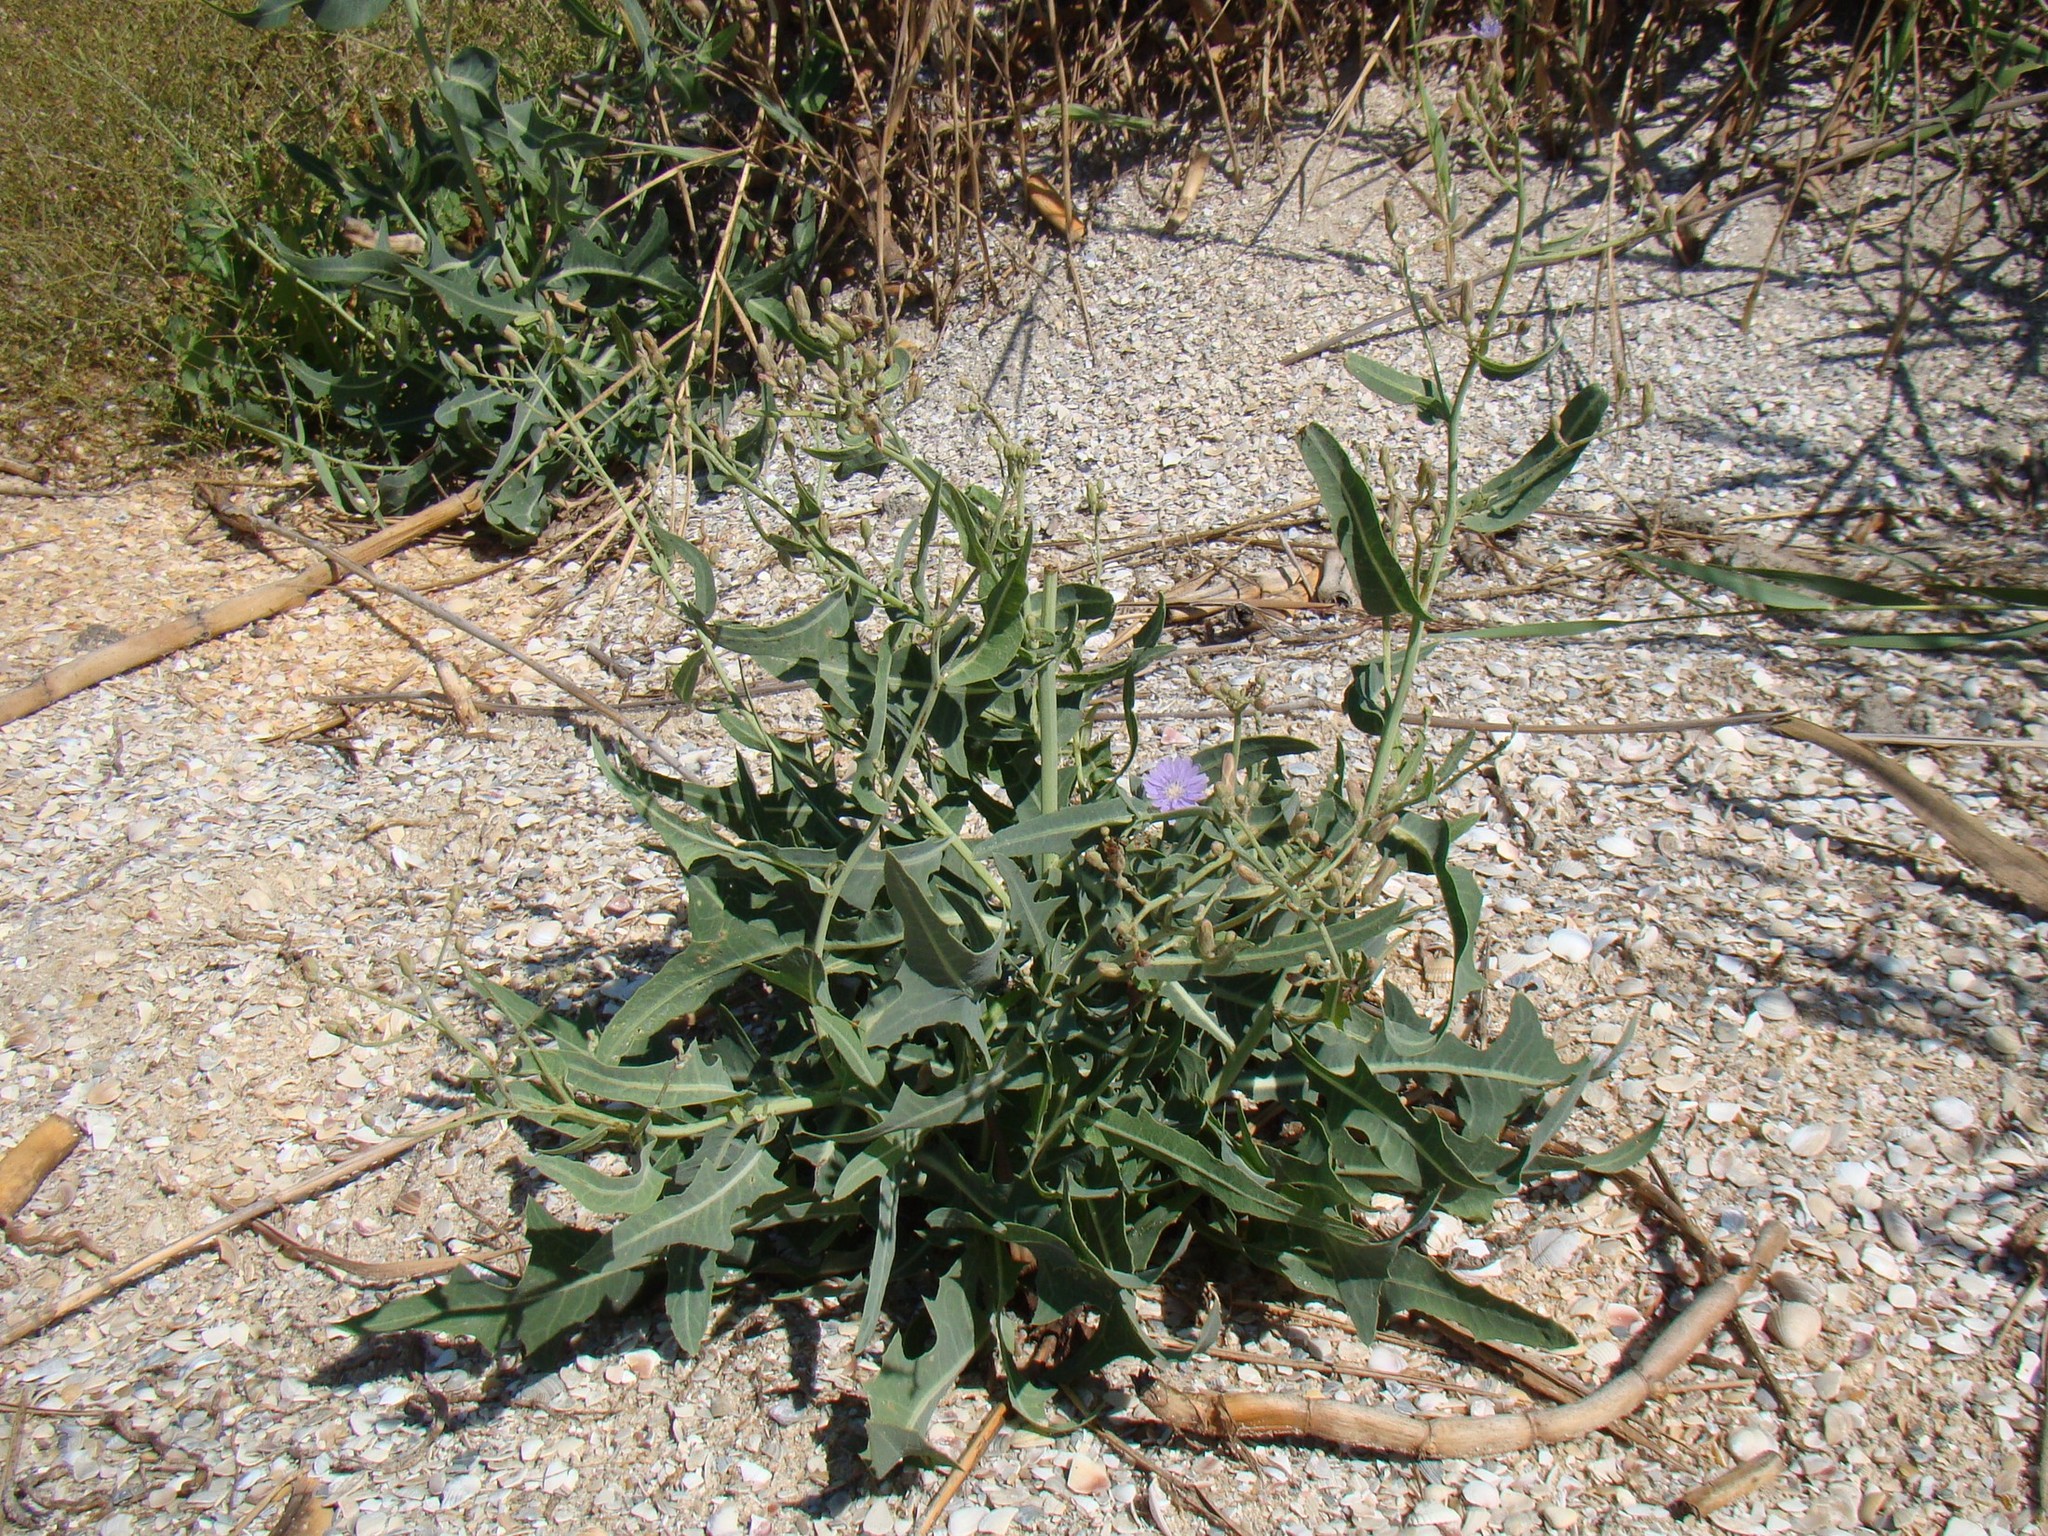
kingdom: Plantae
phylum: Tracheophyta
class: Magnoliopsida
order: Asterales
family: Asteraceae
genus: Lactuca
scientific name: Lactuca tatarica
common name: Blue lettuce
